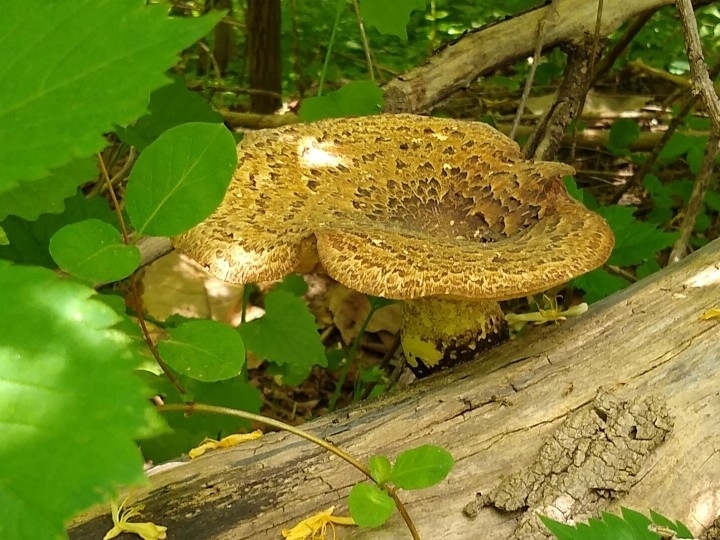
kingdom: Fungi
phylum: Basidiomycota
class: Agaricomycetes
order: Polyporales
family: Polyporaceae
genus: Cerioporus
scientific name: Cerioporus squamosus
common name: Dryad's saddle
